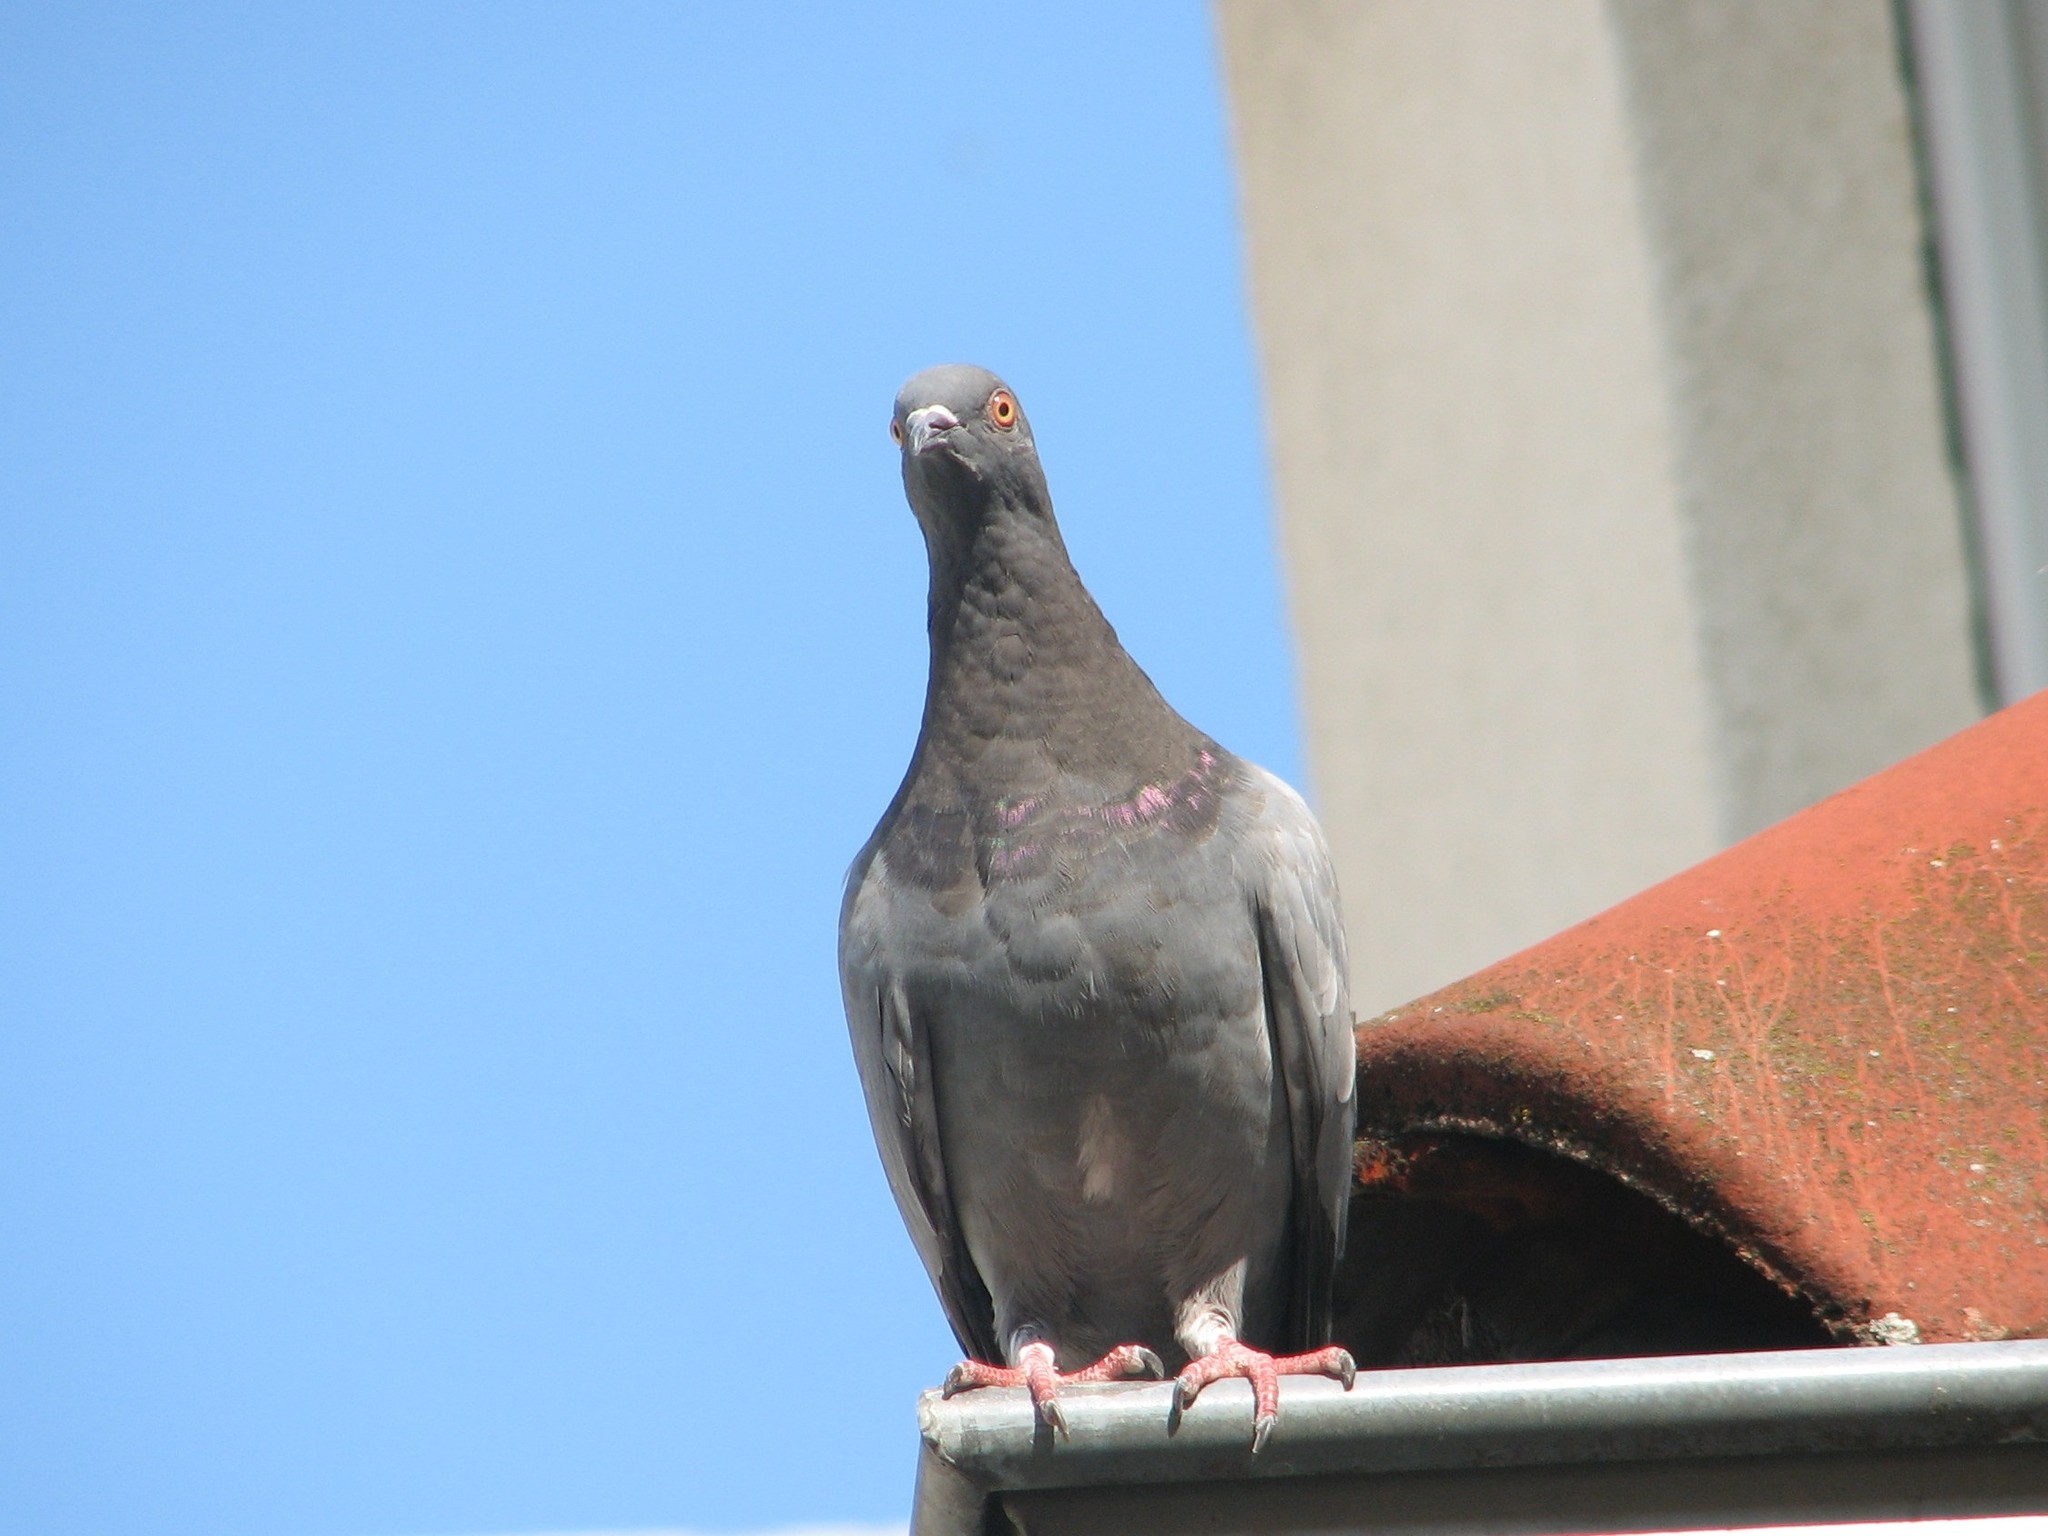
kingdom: Animalia
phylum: Chordata
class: Aves
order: Columbiformes
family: Columbidae
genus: Columba
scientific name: Columba livia
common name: Rock pigeon
